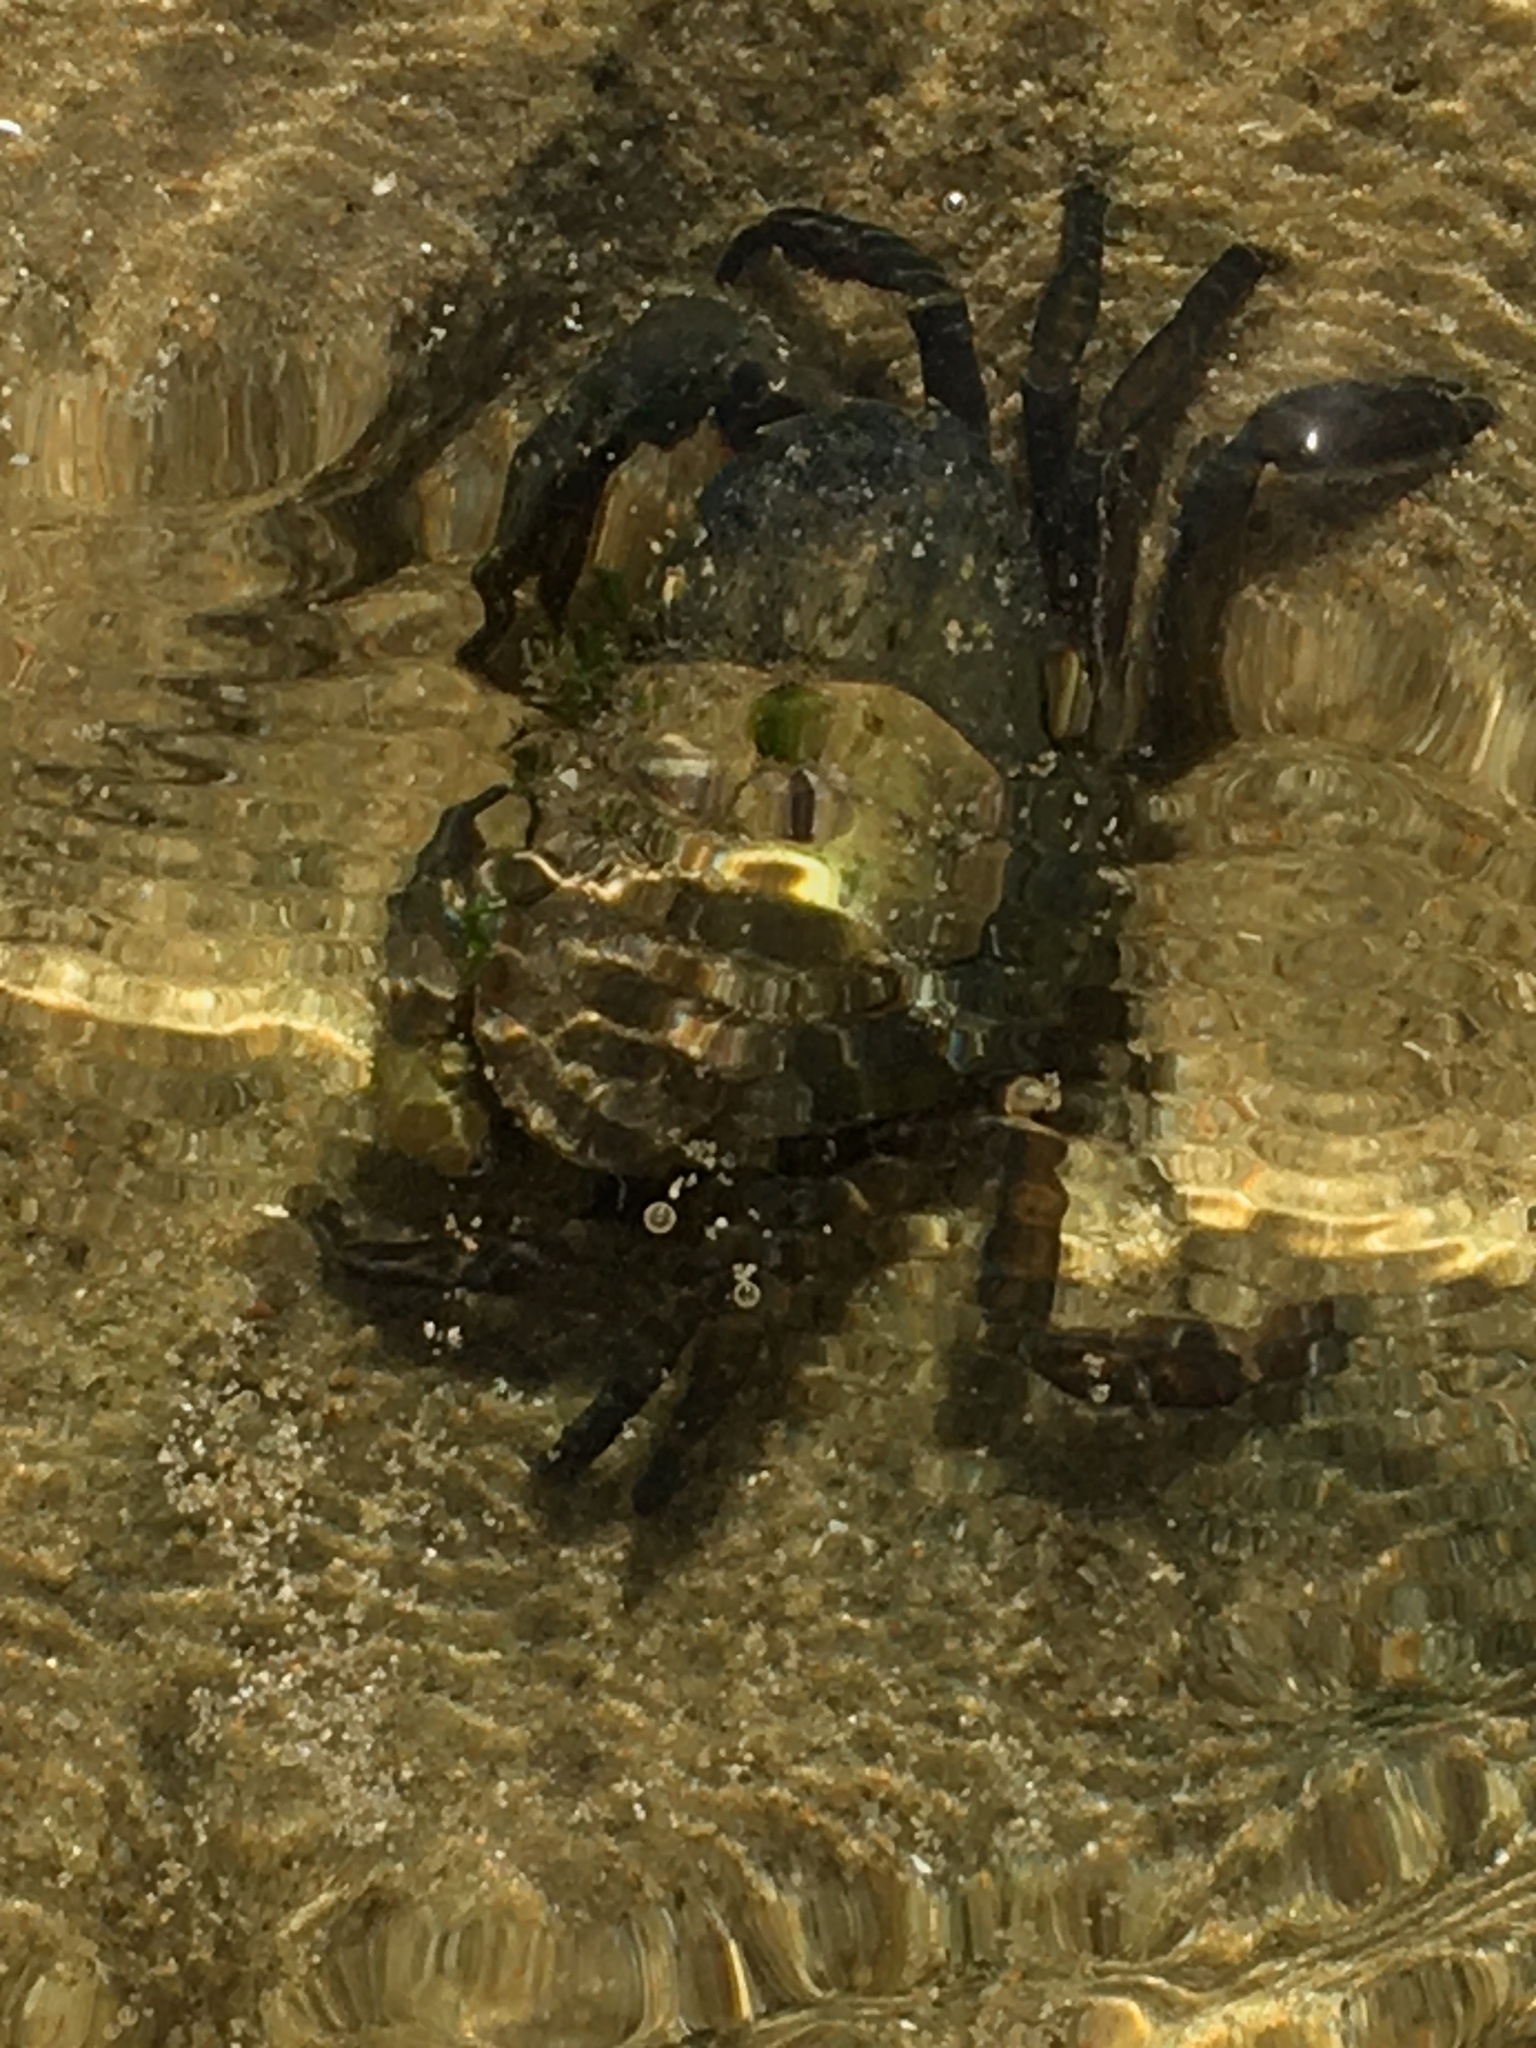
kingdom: Animalia
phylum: Arthropoda
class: Malacostraca
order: Decapoda
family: Carcinidae
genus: Carcinus
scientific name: Carcinus maenas
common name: European green crab
